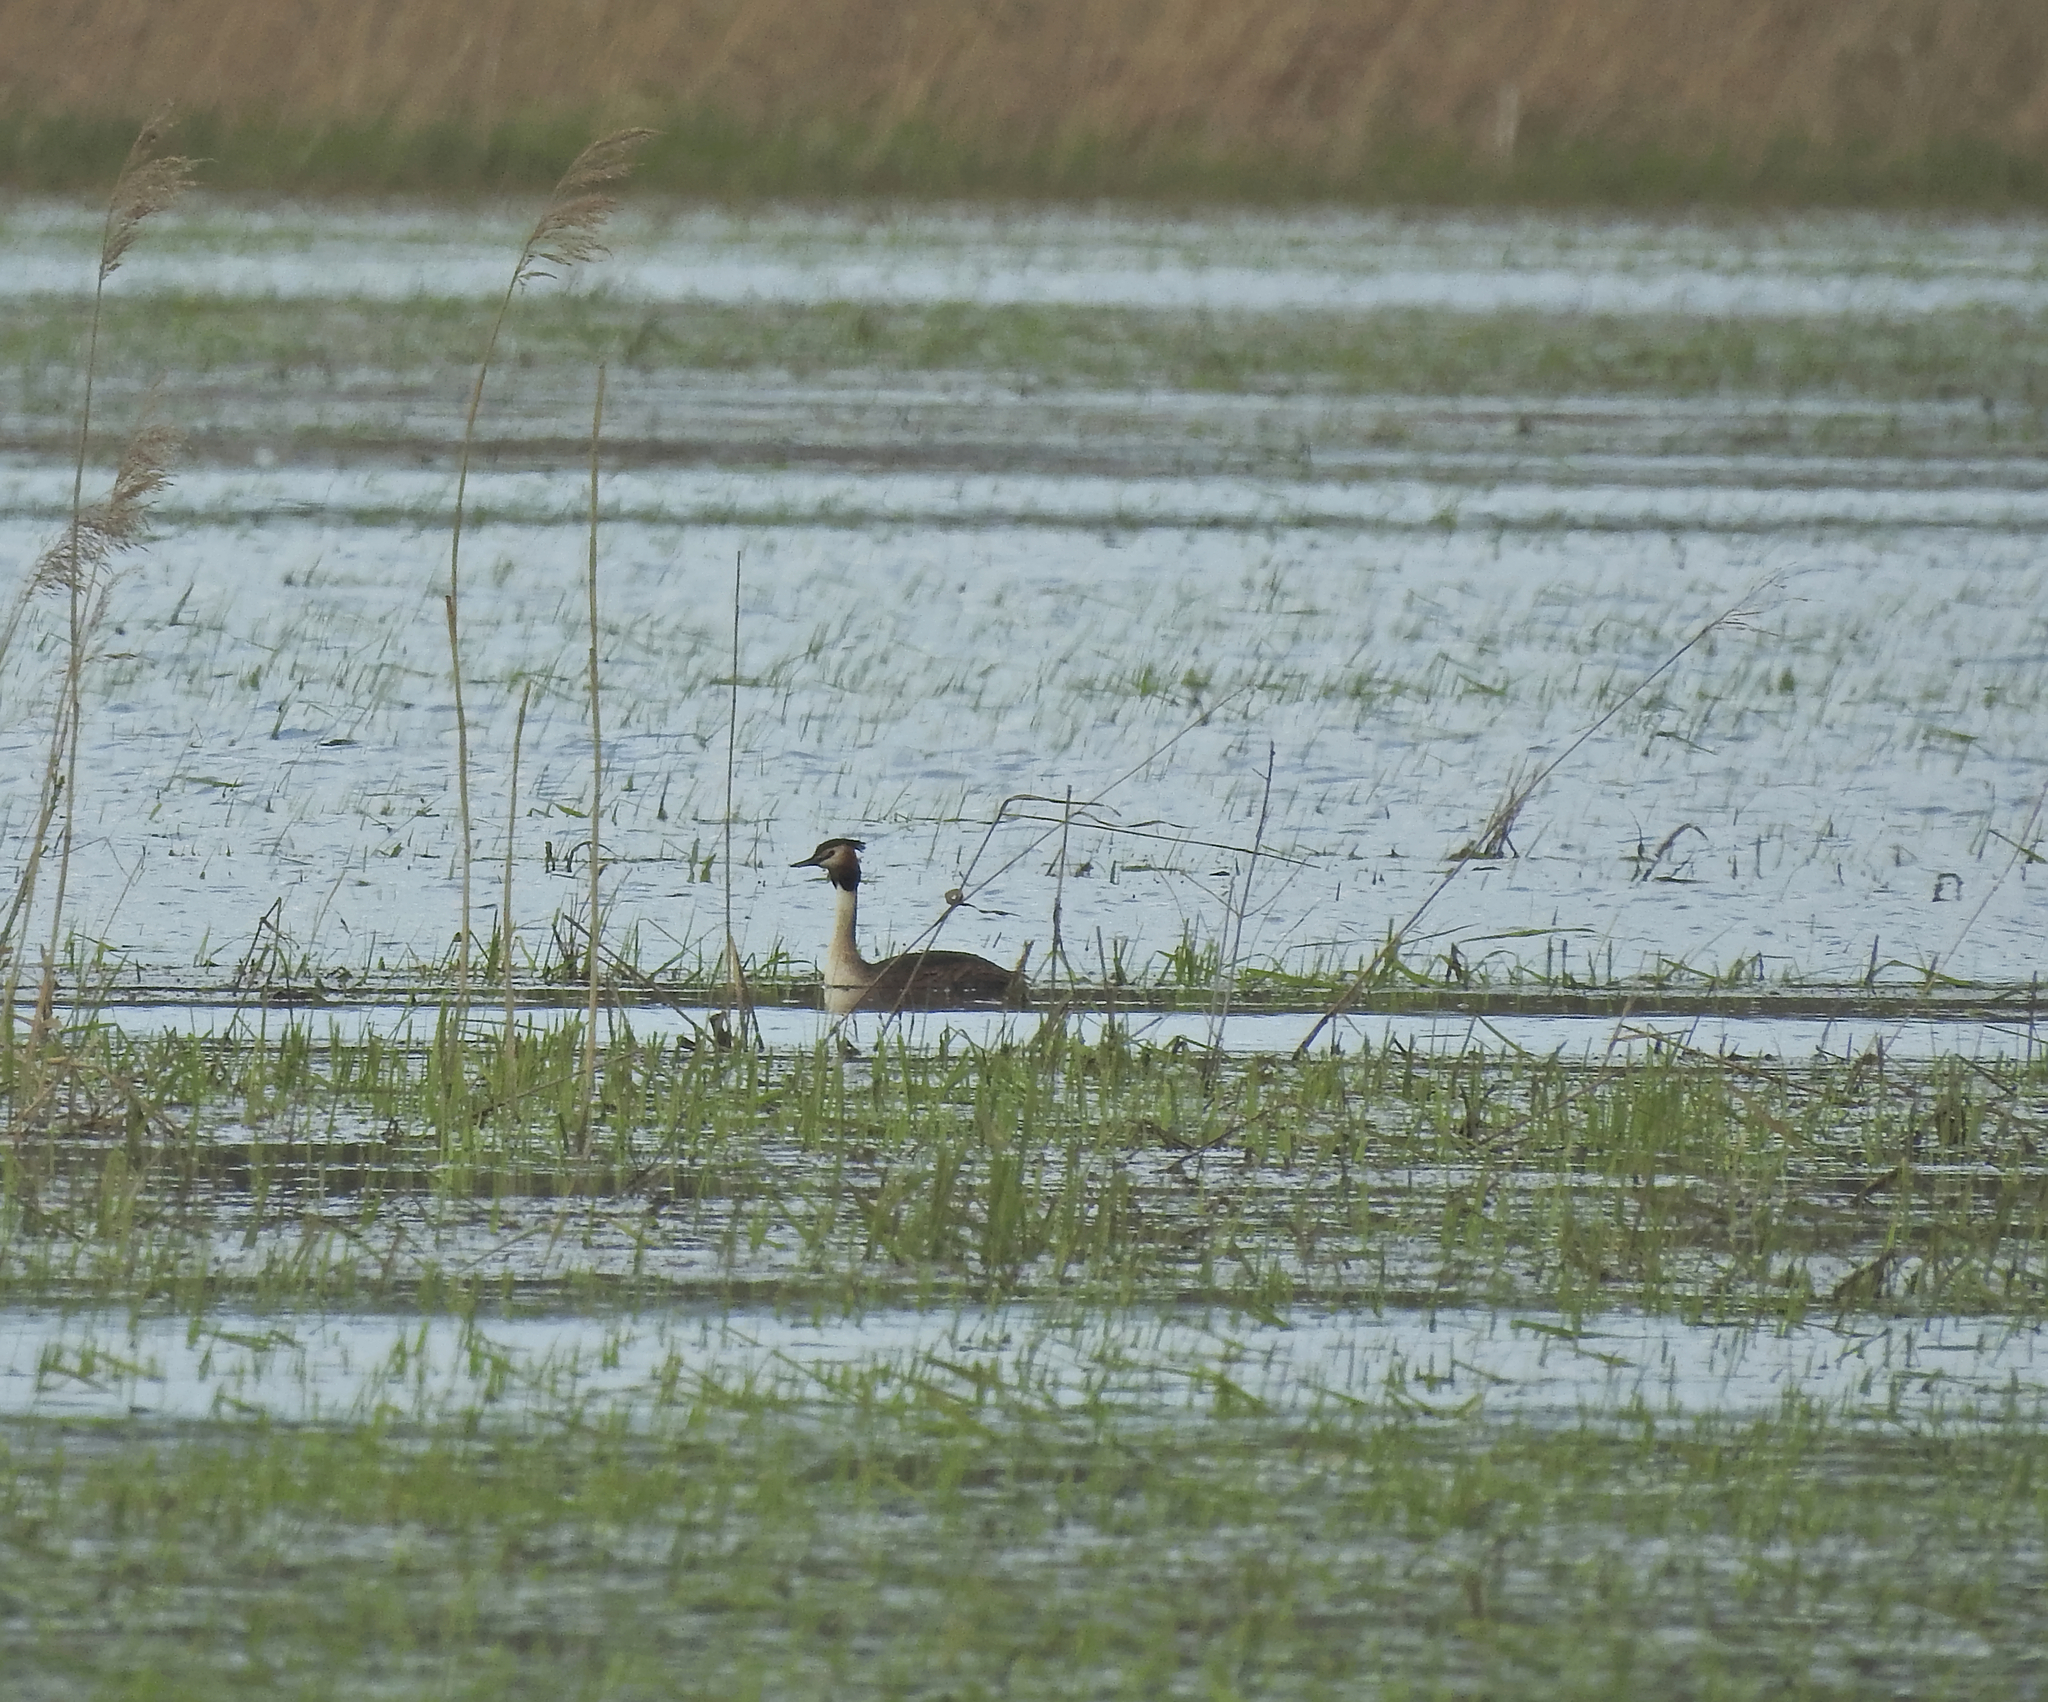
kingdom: Animalia
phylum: Chordata
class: Aves
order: Podicipediformes
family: Podicipedidae
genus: Podiceps
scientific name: Podiceps cristatus
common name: Great crested grebe
